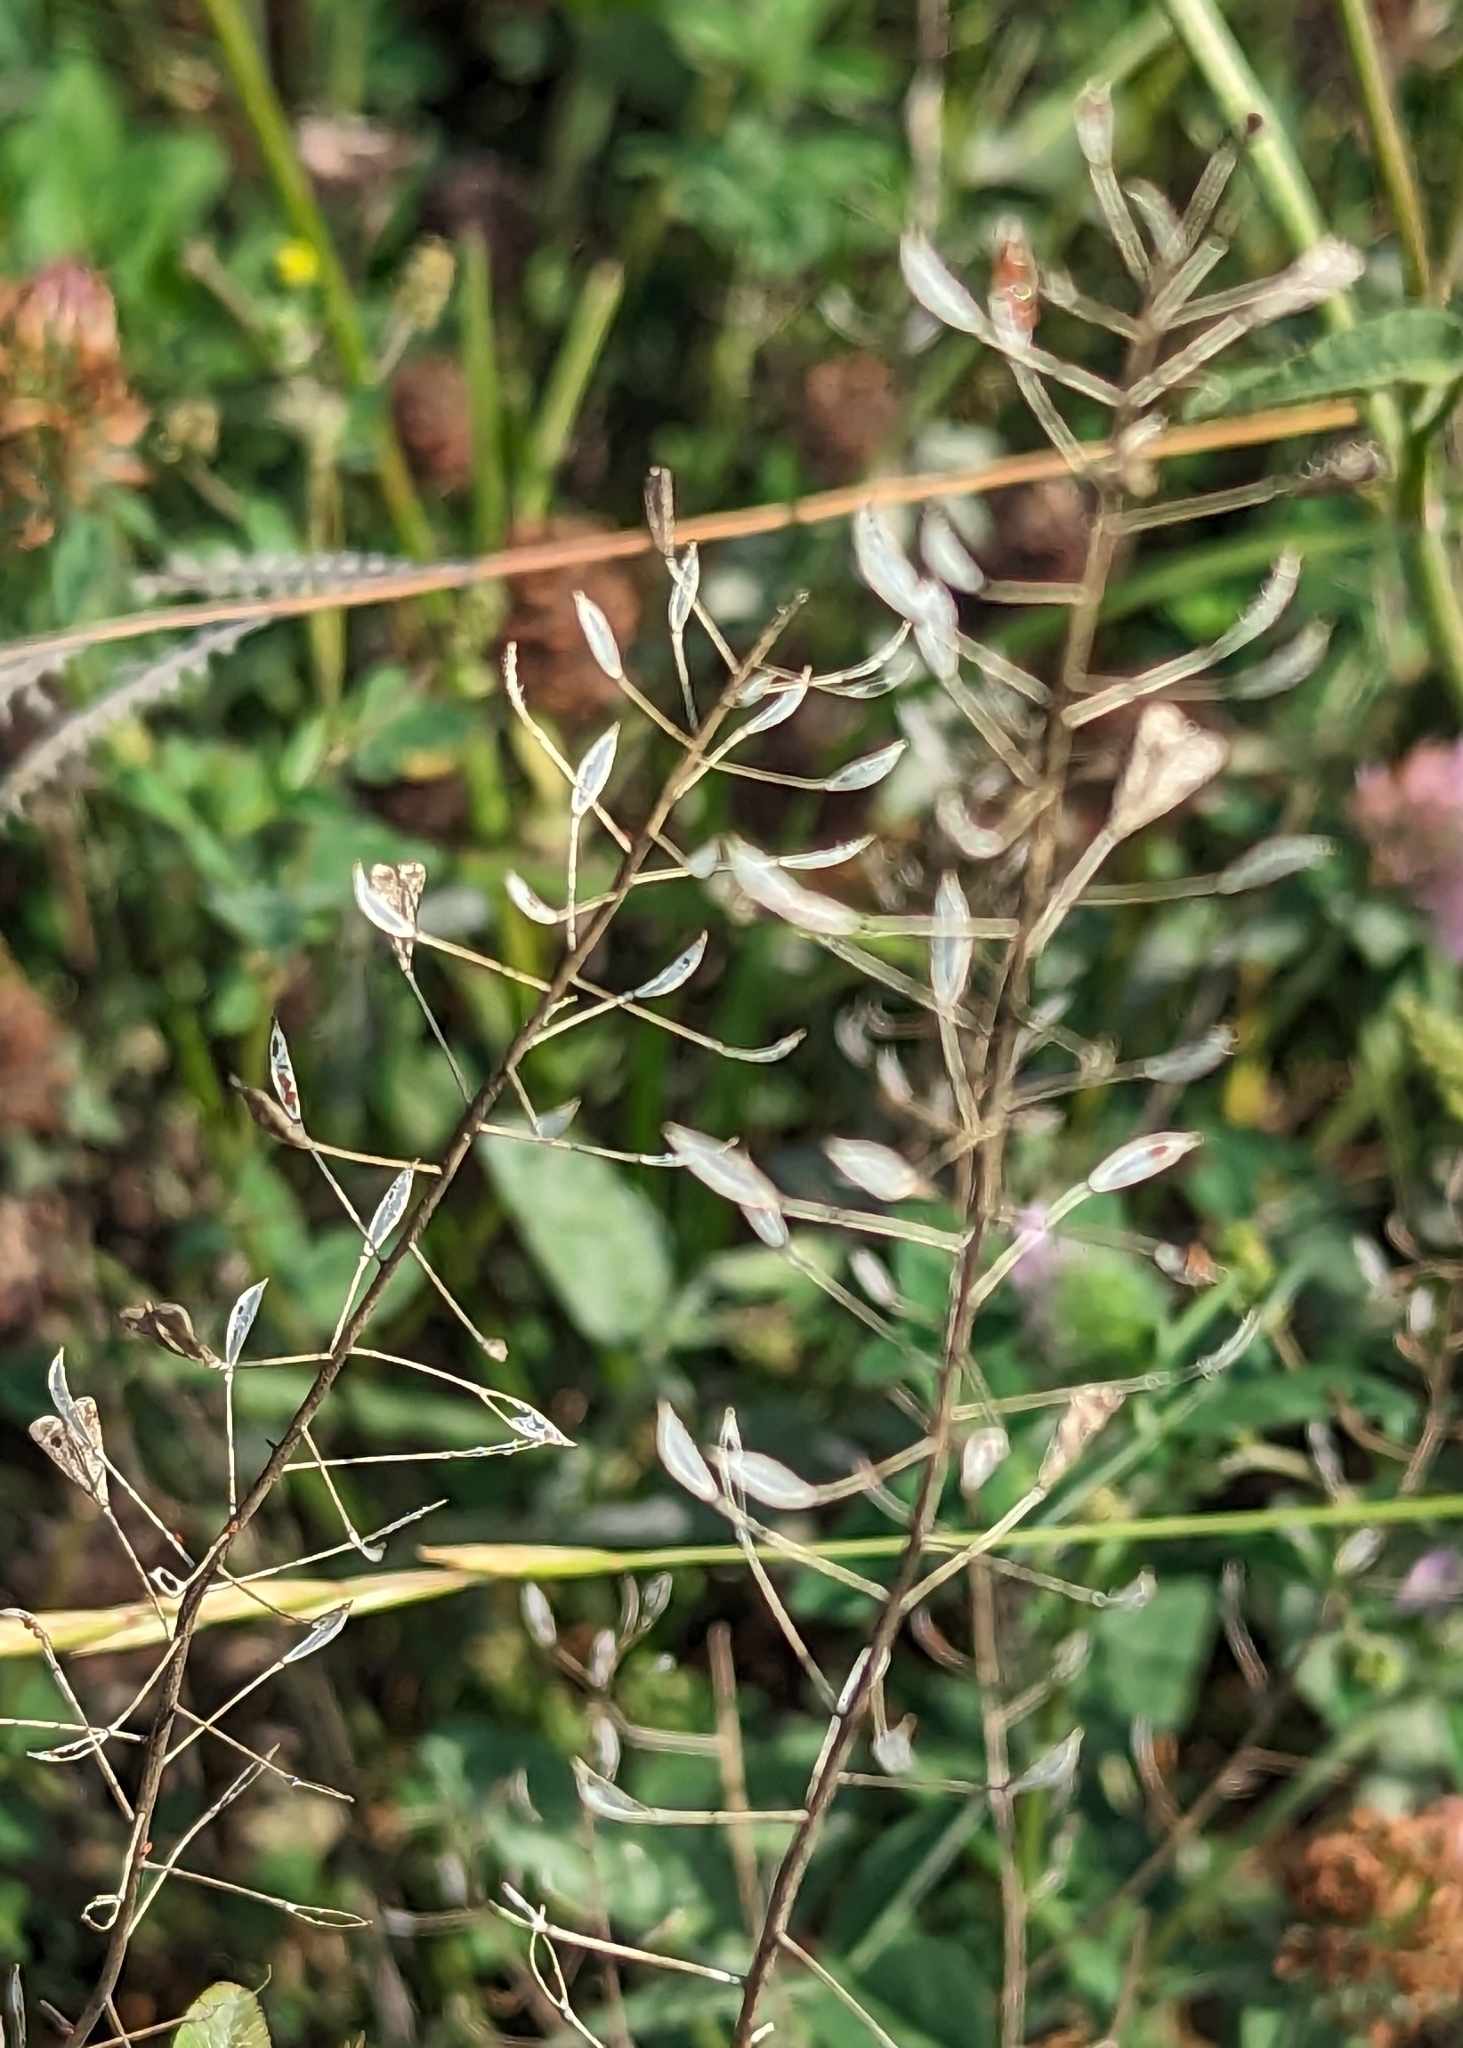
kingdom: Plantae
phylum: Tracheophyta
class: Magnoliopsida
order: Brassicales
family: Brassicaceae
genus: Capsella
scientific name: Capsella bursa-pastoris
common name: Shepherd's purse
